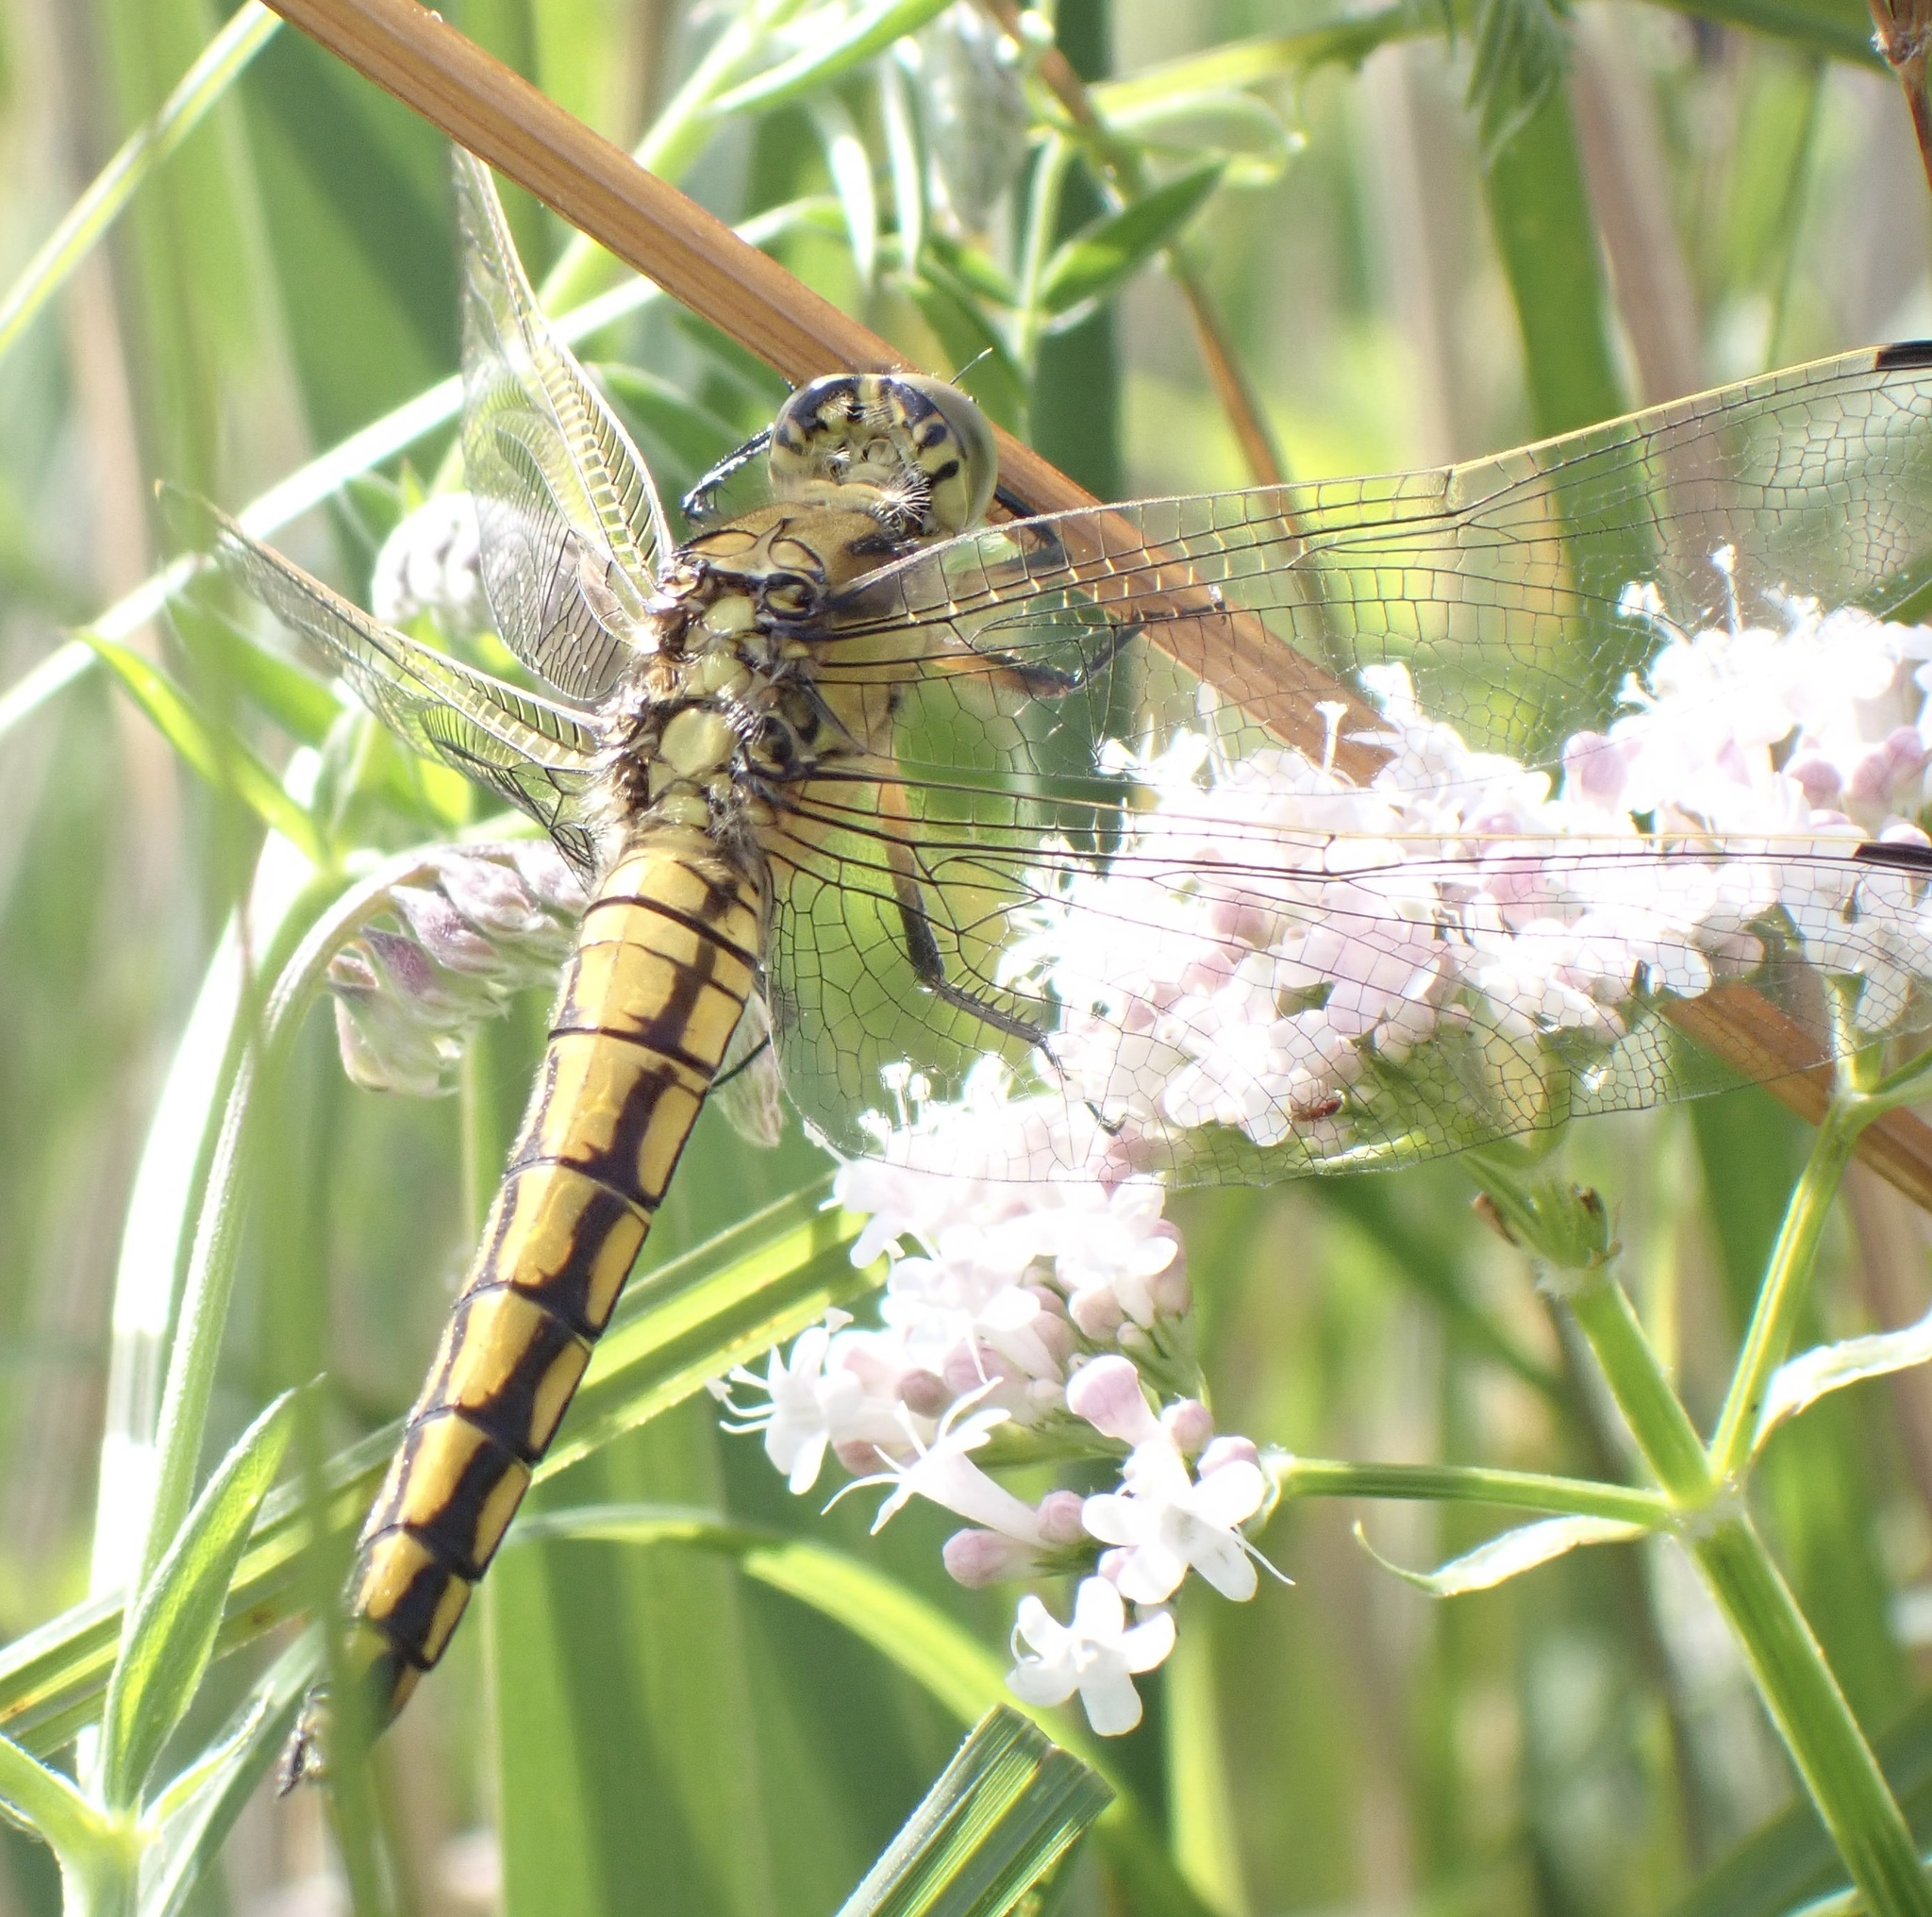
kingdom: Animalia
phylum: Arthropoda
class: Insecta
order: Odonata
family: Libellulidae
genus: Orthetrum
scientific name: Orthetrum cancellatum
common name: Black-tailed skimmer
